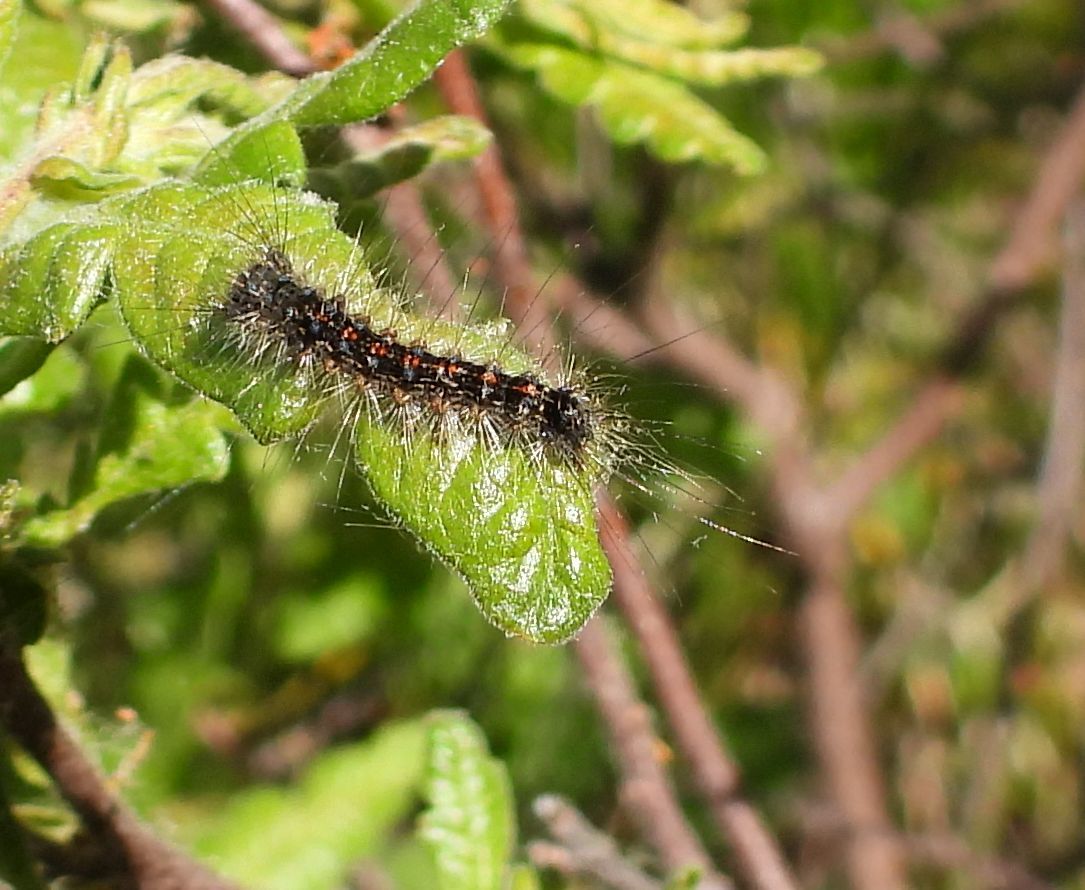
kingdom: Animalia
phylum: Arthropoda
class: Insecta
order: Lepidoptera
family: Erebidae
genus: Lymantria
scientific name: Lymantria dispar
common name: Gypsy moth
